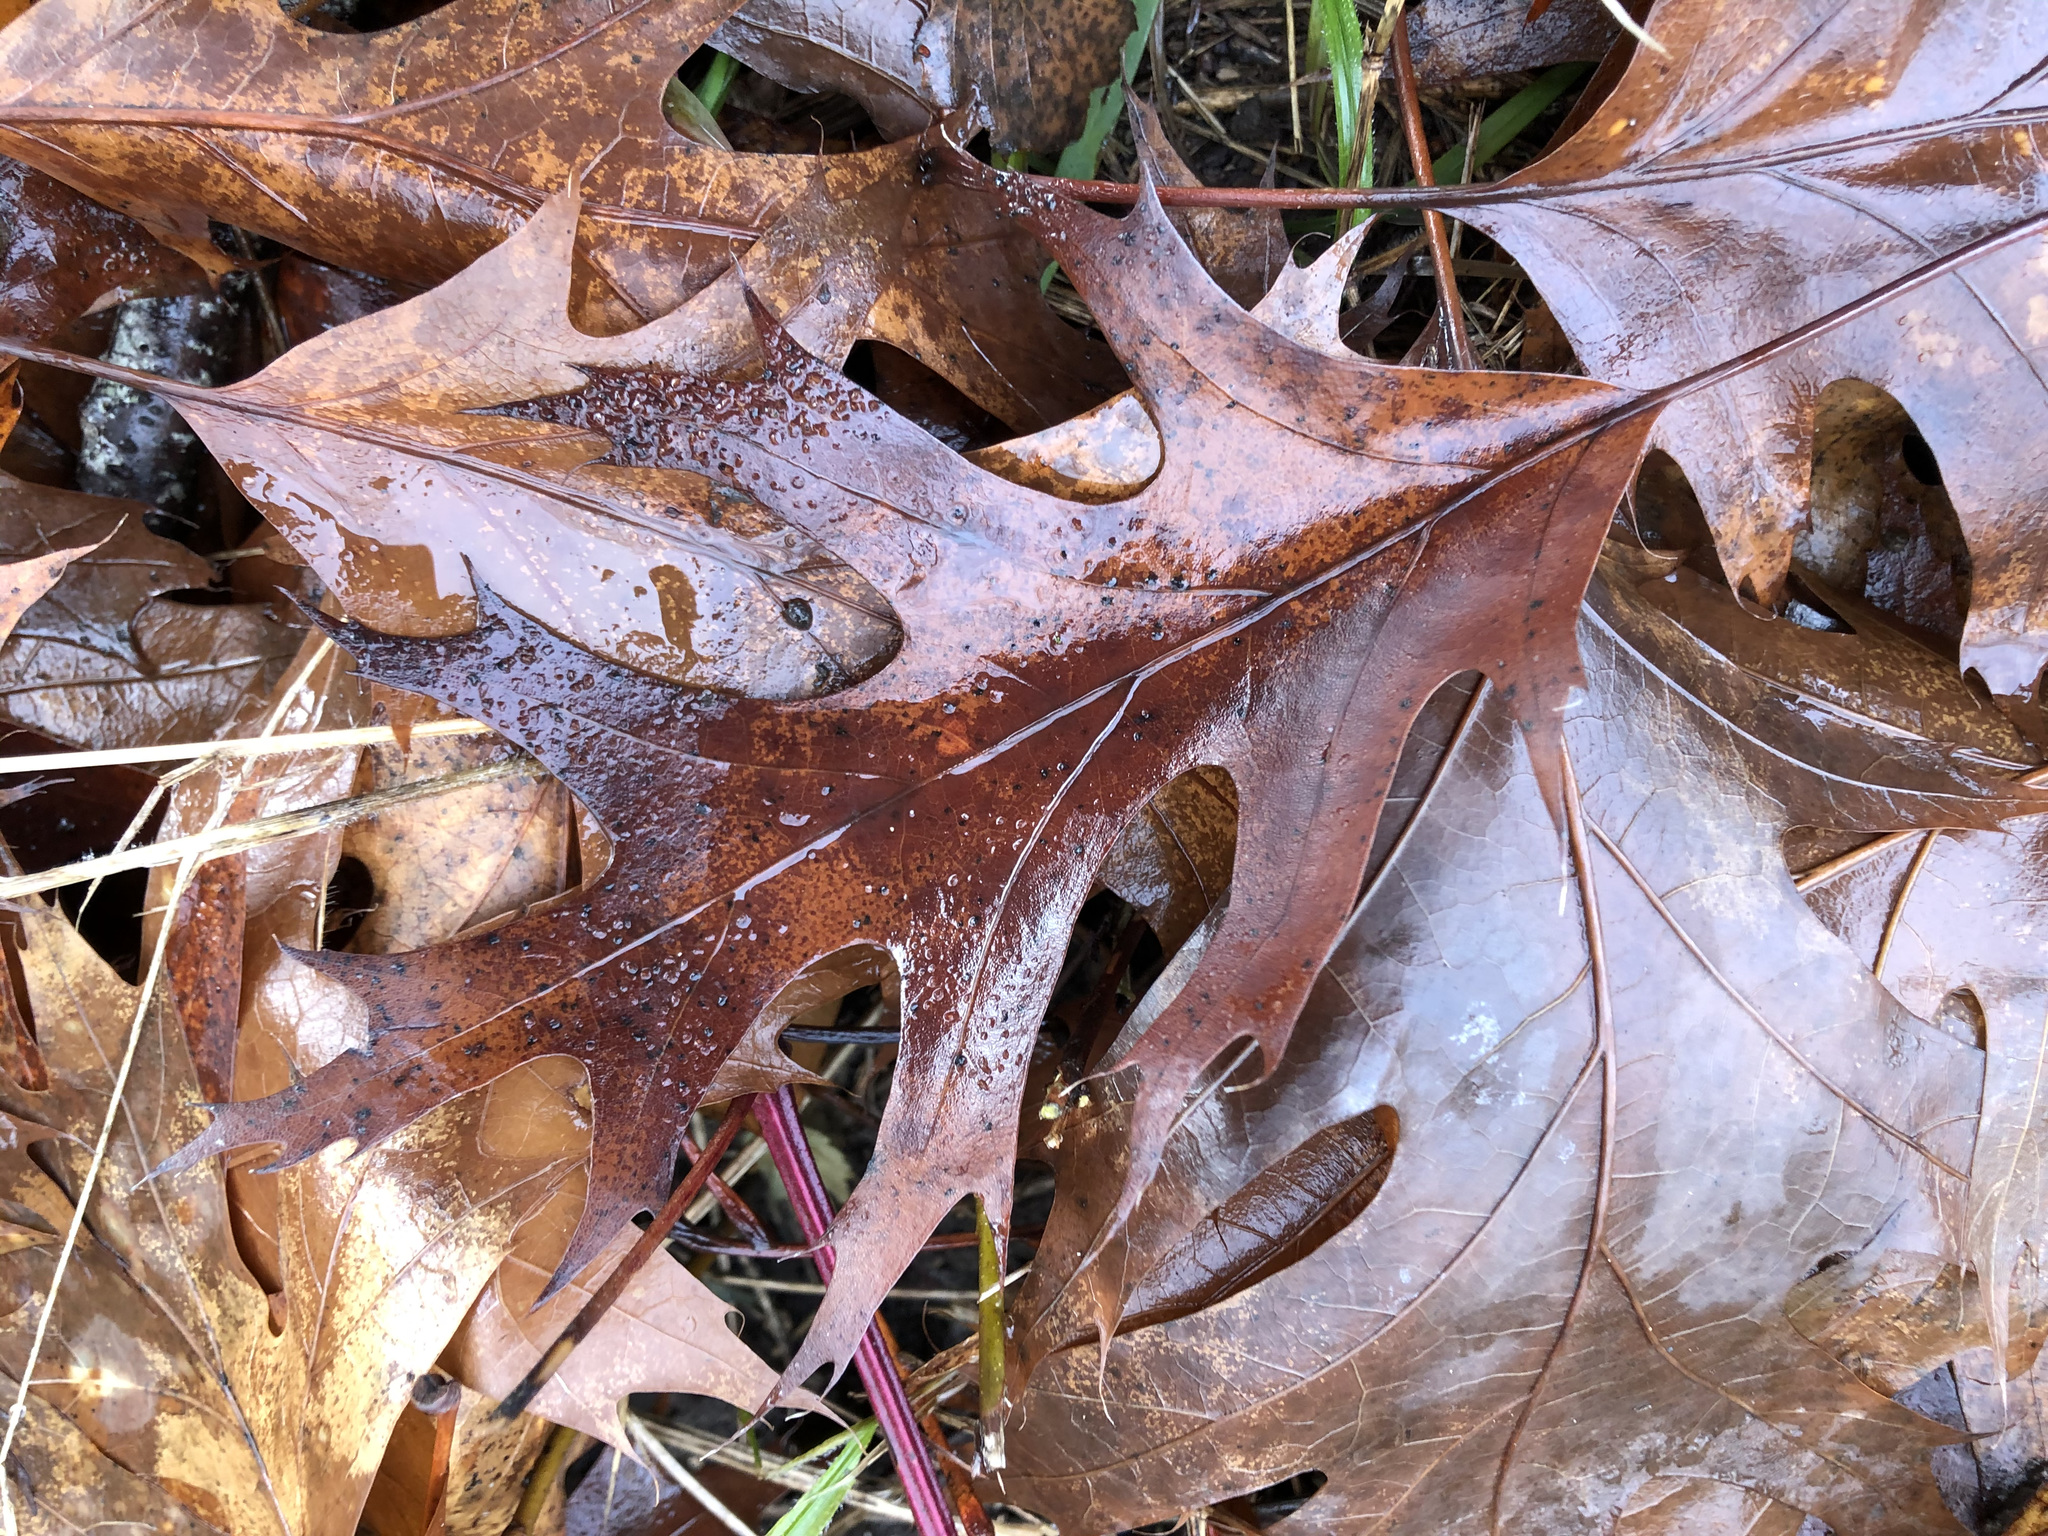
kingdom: Plantae
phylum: Tracheophyta
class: Magnoliopsida
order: Fagales
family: Fagaceae
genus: Quercus
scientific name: Quercus rubra
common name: Red oak
